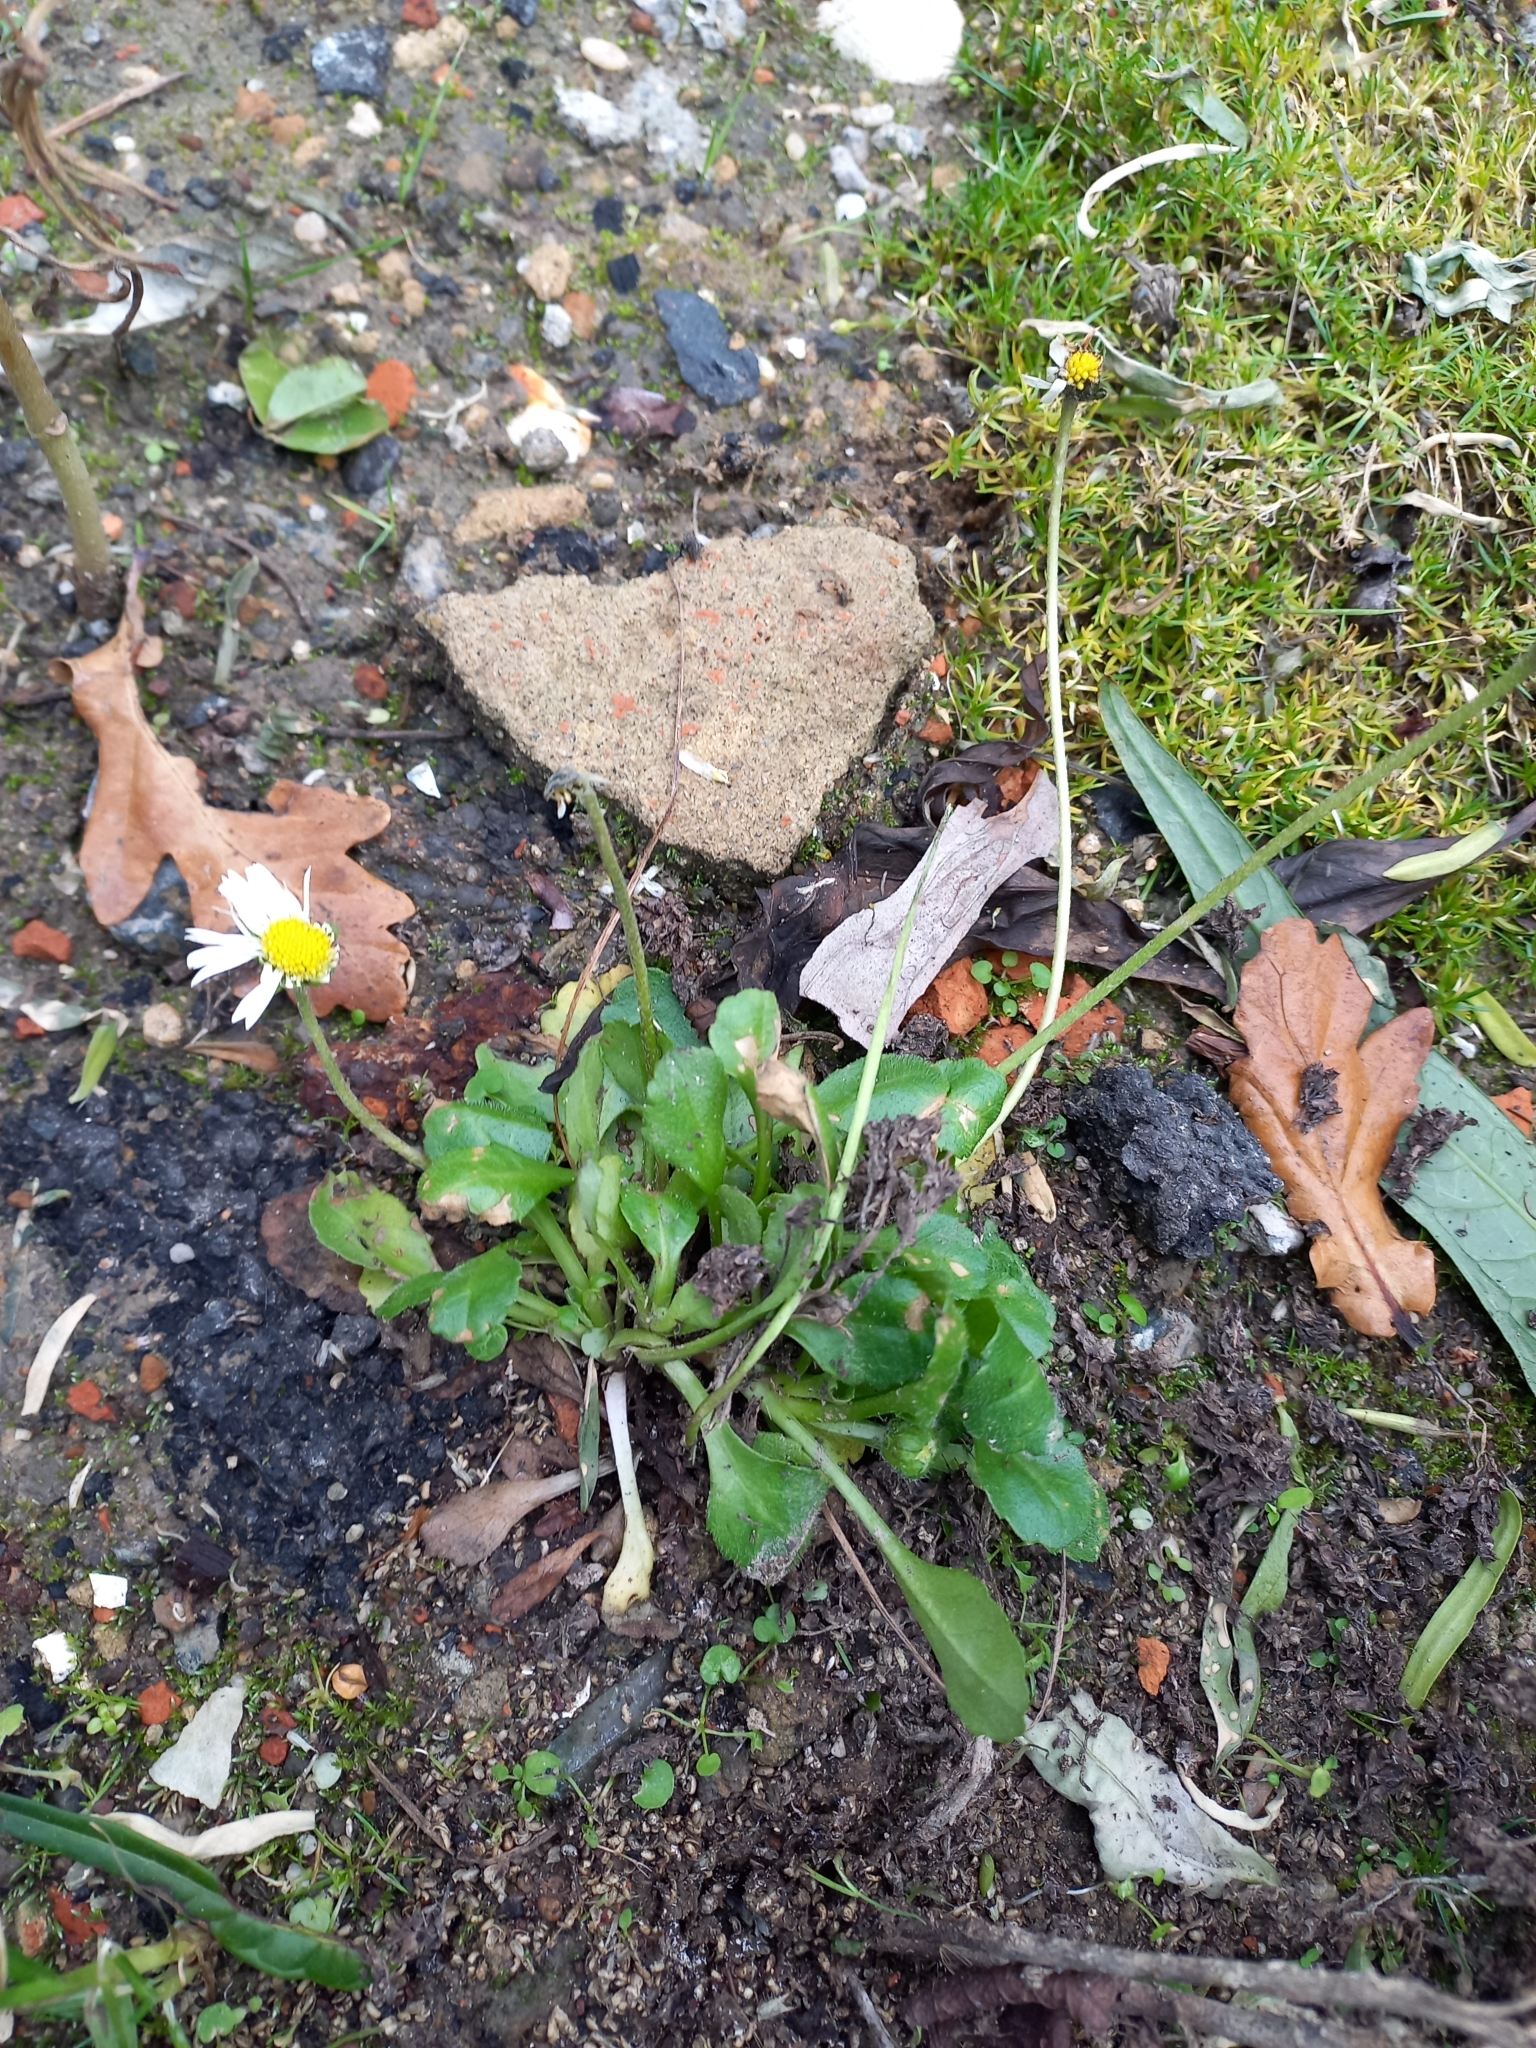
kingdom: Plantae
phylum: Tracheophyta
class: Magnoliopsida
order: Asterales
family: Asteraceae
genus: Bellis
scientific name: Bellis perennis
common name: Lawndaisy
